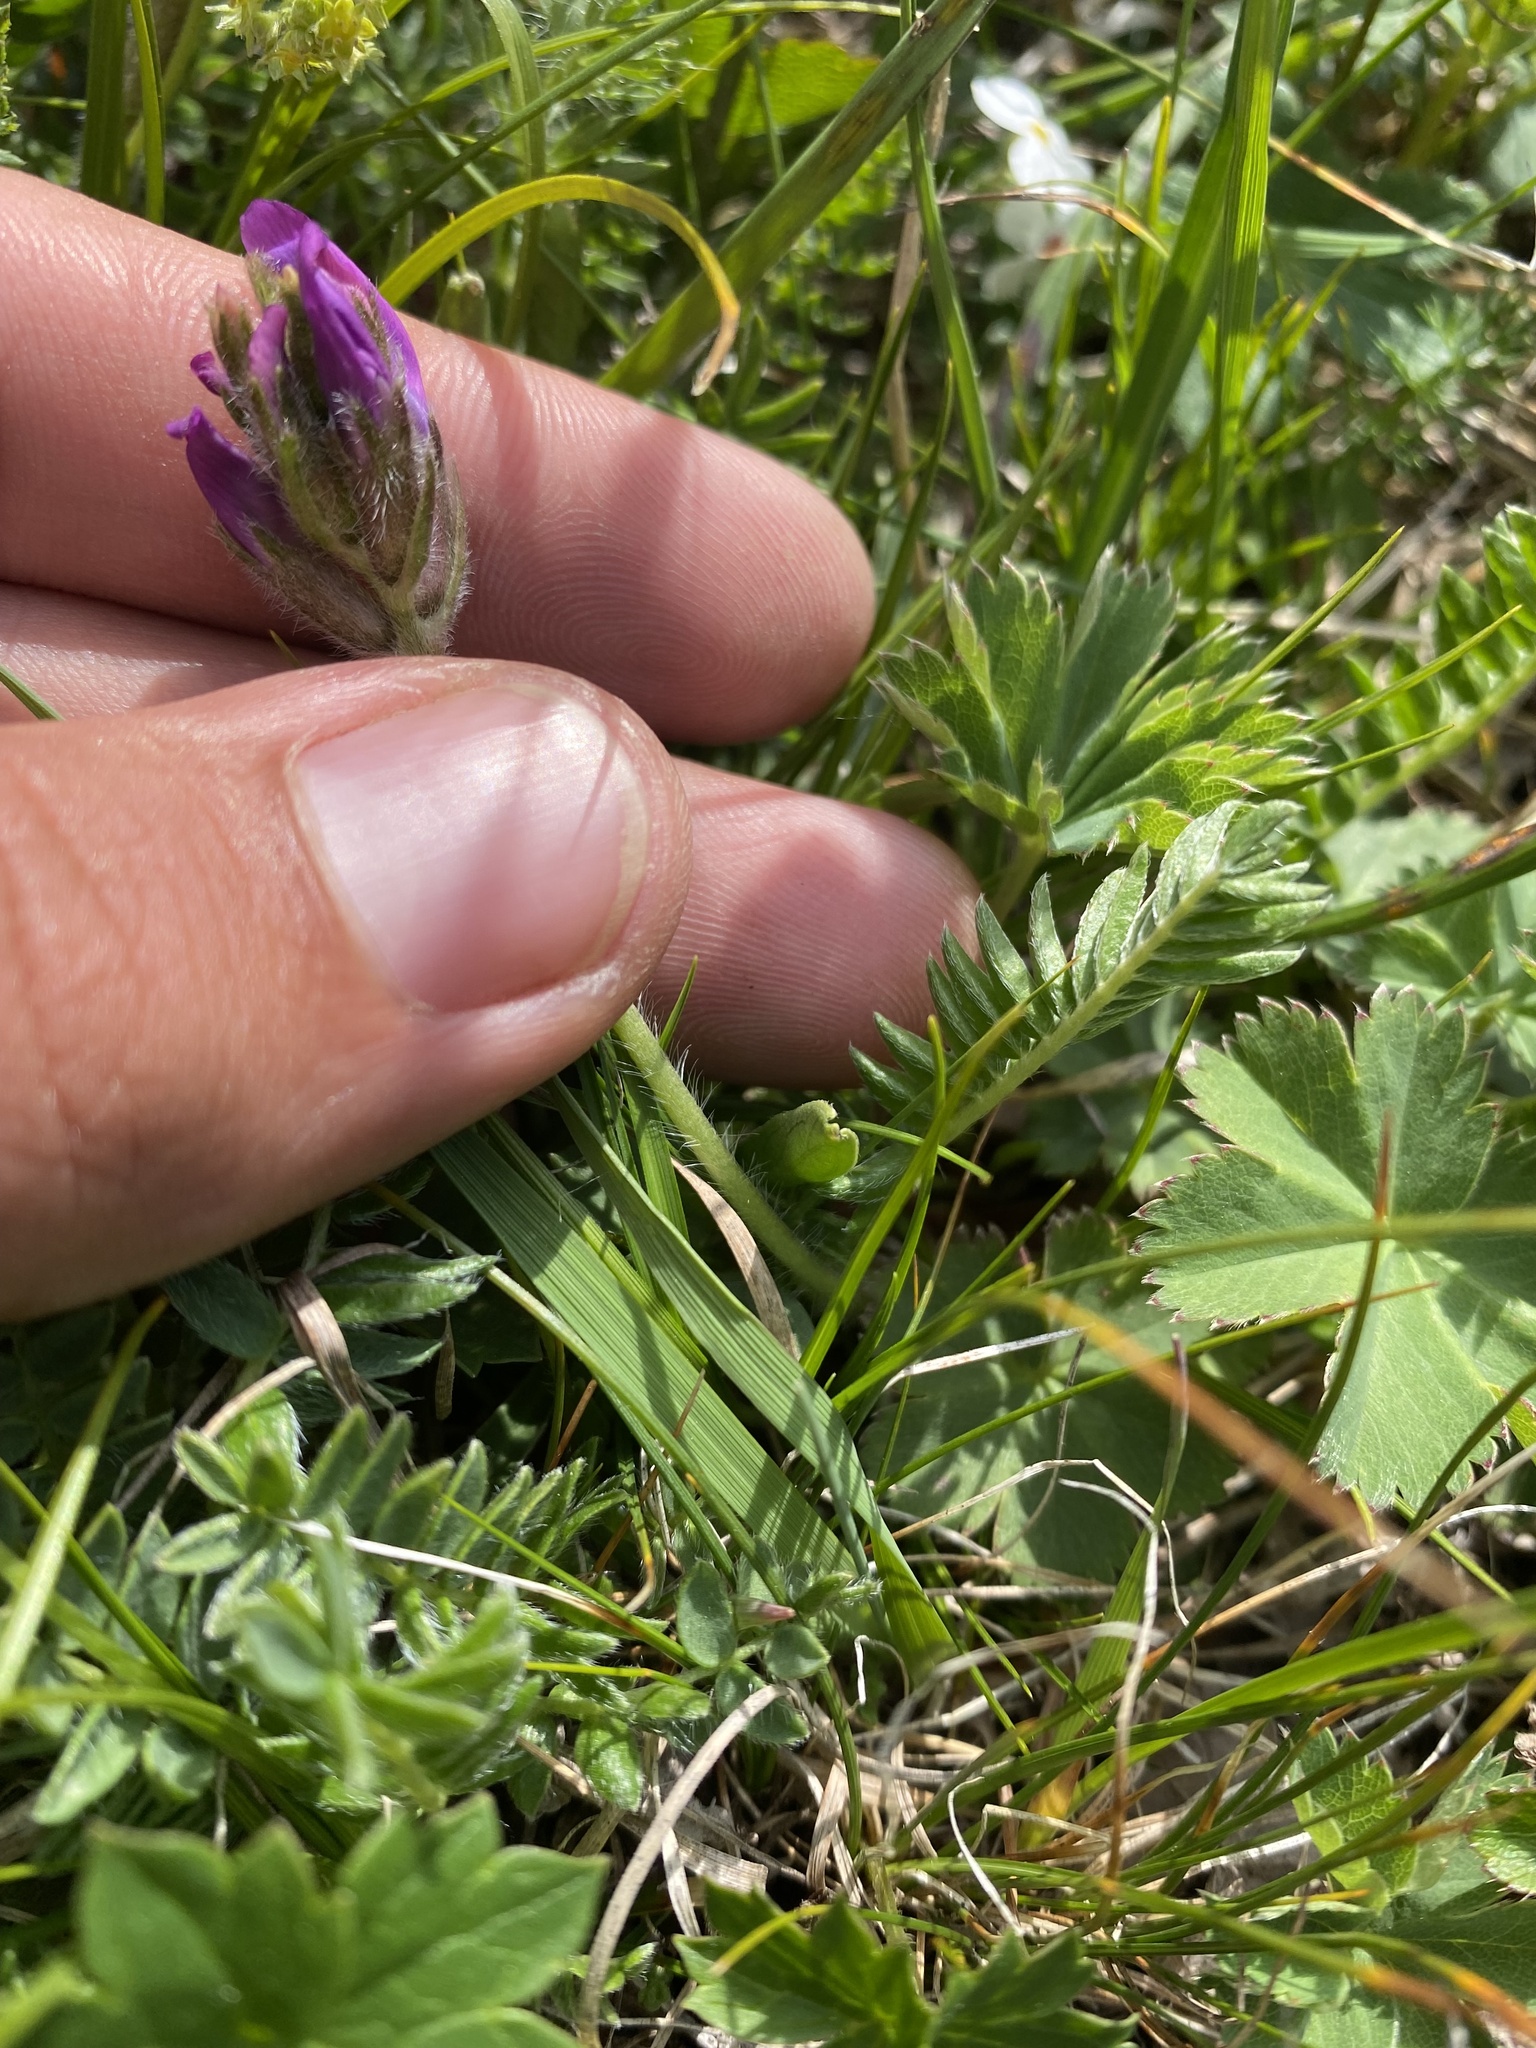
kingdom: Plantae
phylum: Tracheophyta
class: Magnoliopsida
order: Fabales
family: Fabaceae
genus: Oxytropis
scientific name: Oxytropis lazica
